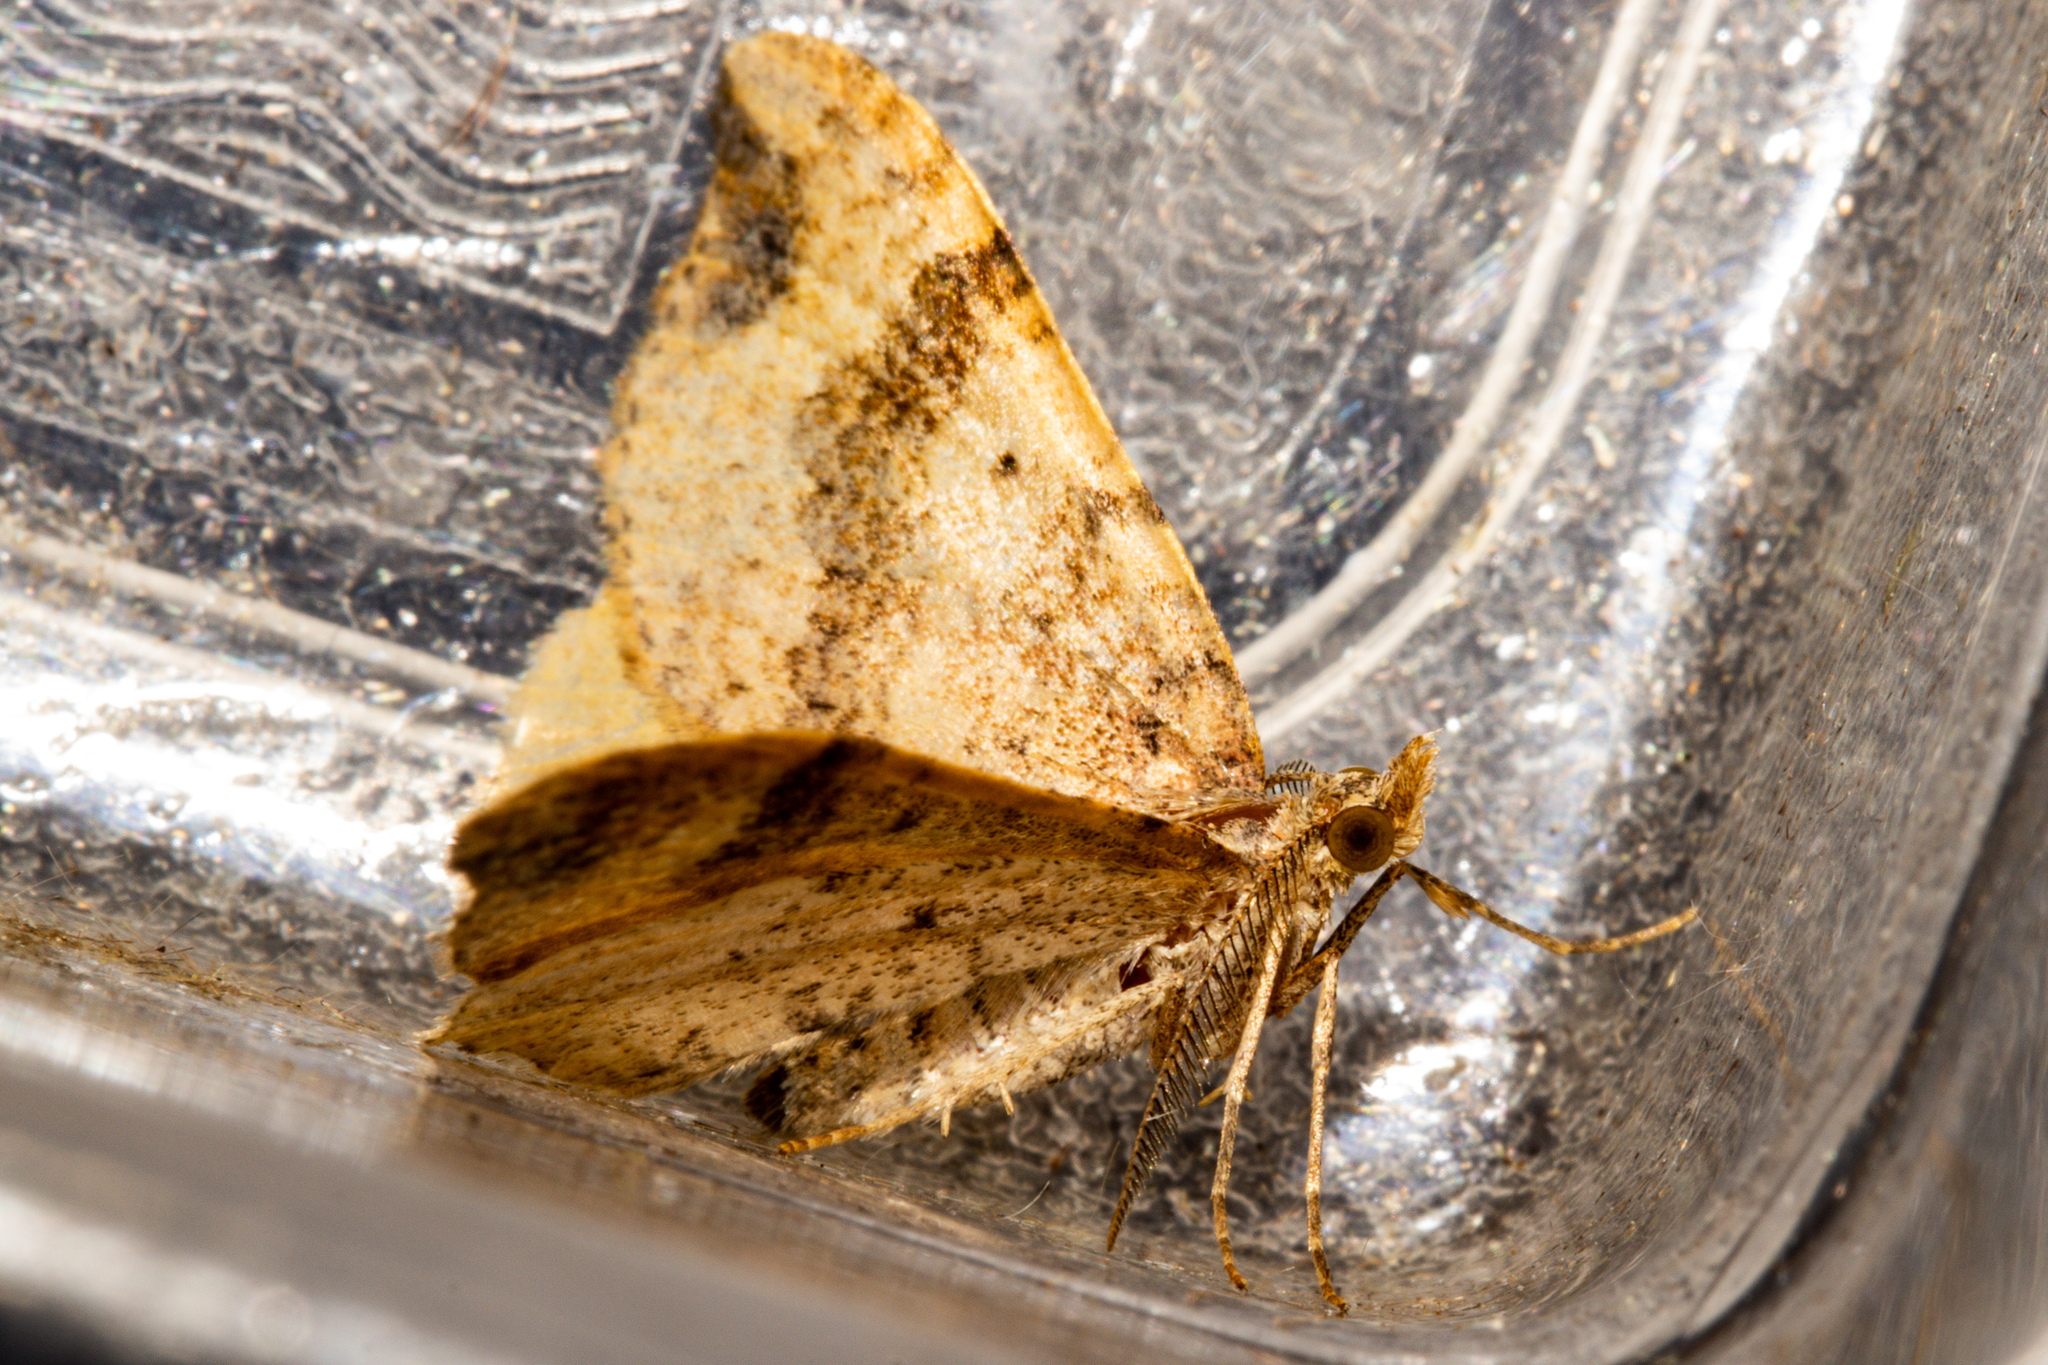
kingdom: Animalia
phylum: Arthropoda
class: Insecta
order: Lepidoptera
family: Geometridae
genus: Homodotis
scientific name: Homodotis megaspilata
